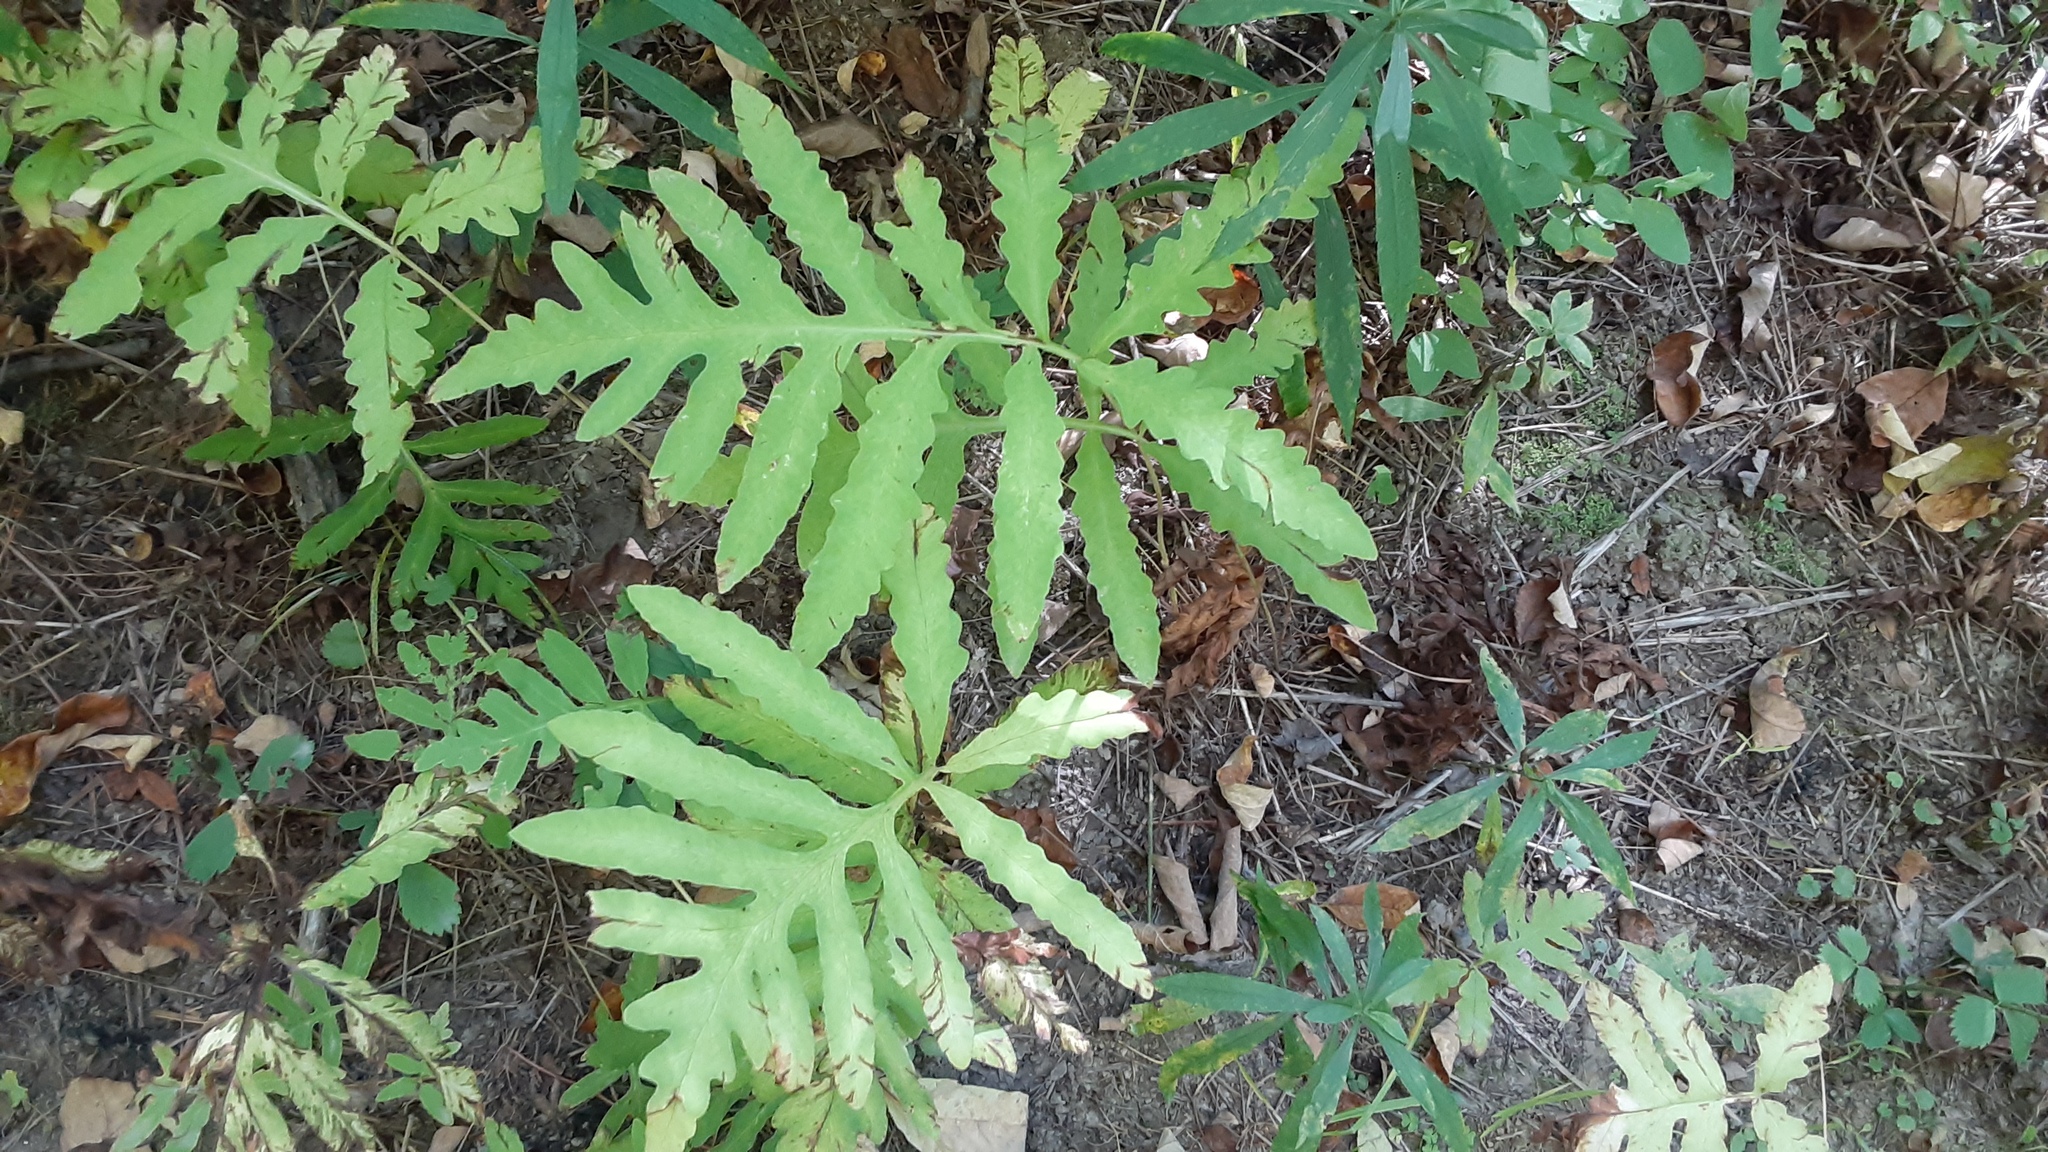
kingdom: Plantae
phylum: Tracheophyta
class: Polypodiopsida
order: Polypodiales
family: Onocleaceae
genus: Onoclea
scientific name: Onoclea sensibilis
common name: Sensitive fern
